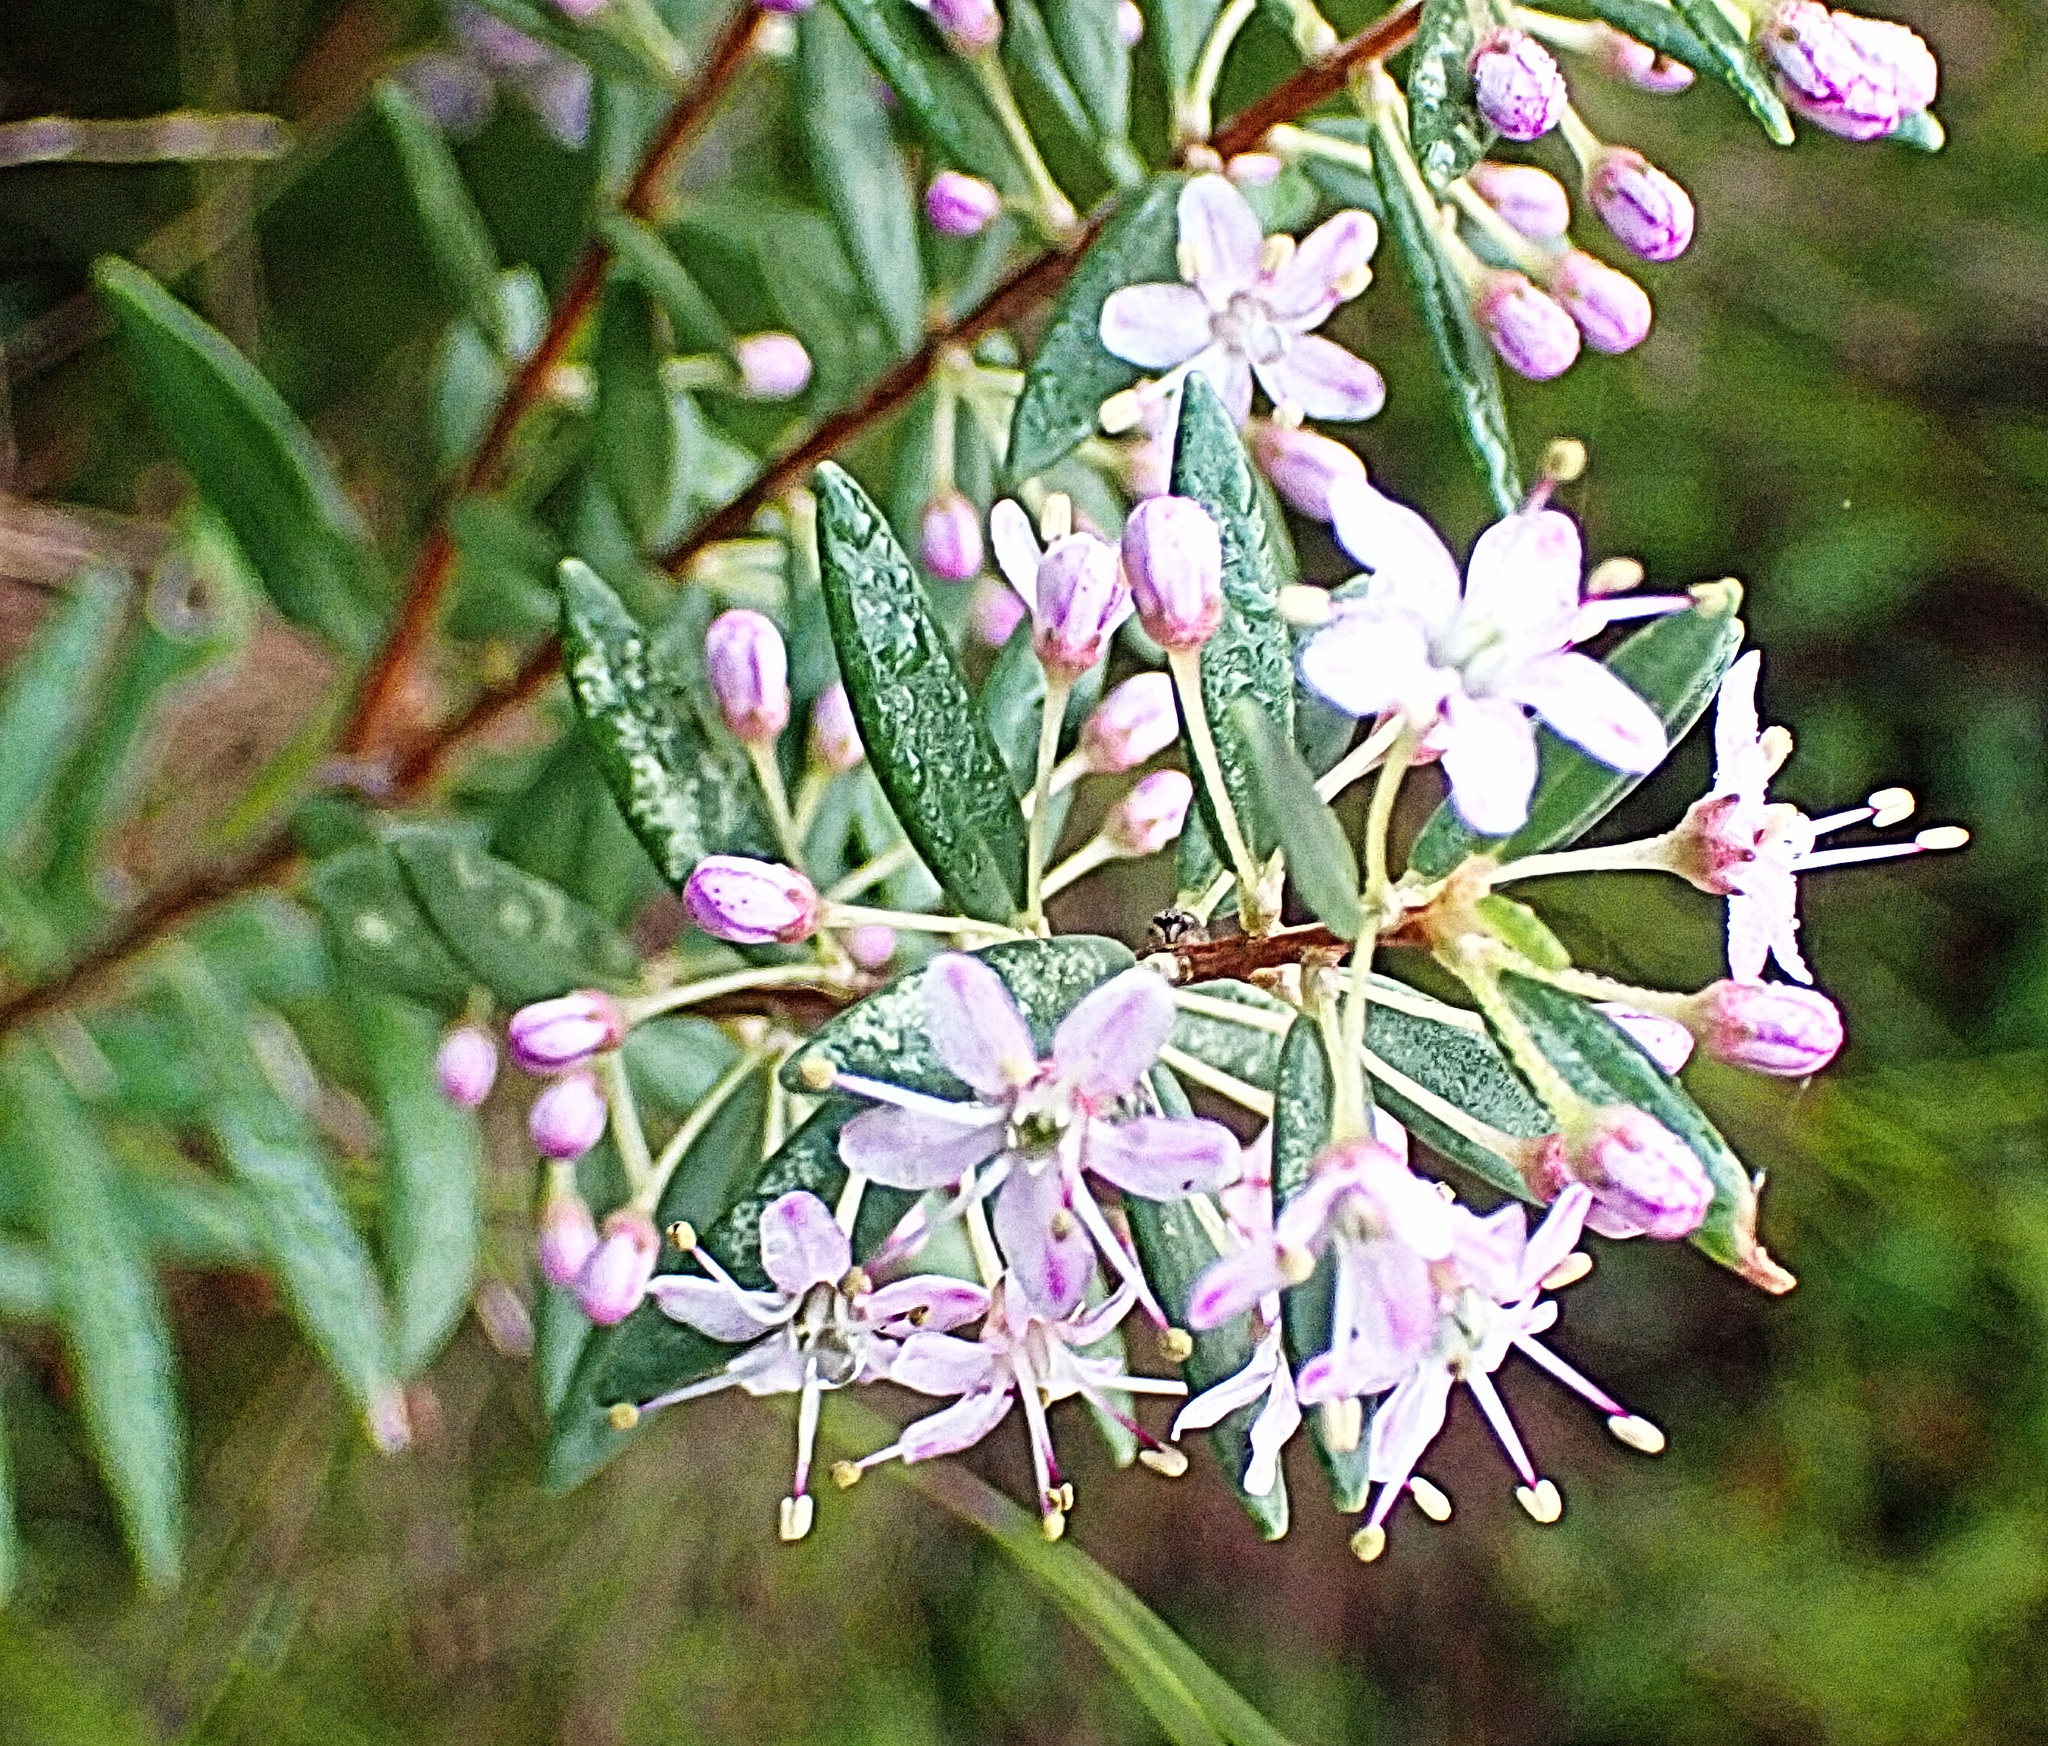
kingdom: Plantae
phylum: Tracheophyta
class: Magnoliopsida
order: Sapindales
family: Rutaceae
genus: Agathosma
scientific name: Agathosma ovata
